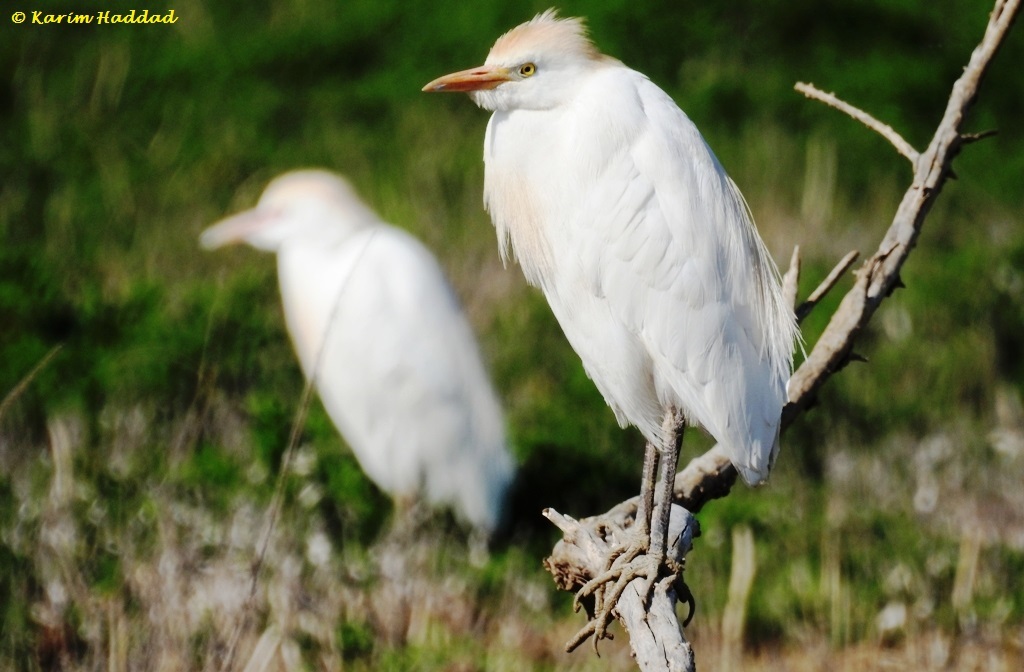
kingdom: Animalia
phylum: Chordata
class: Aves
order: Pelecaniformes
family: Ardeidae
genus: Bubulcus
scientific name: Bubulcus ibis
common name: Cattle egret
